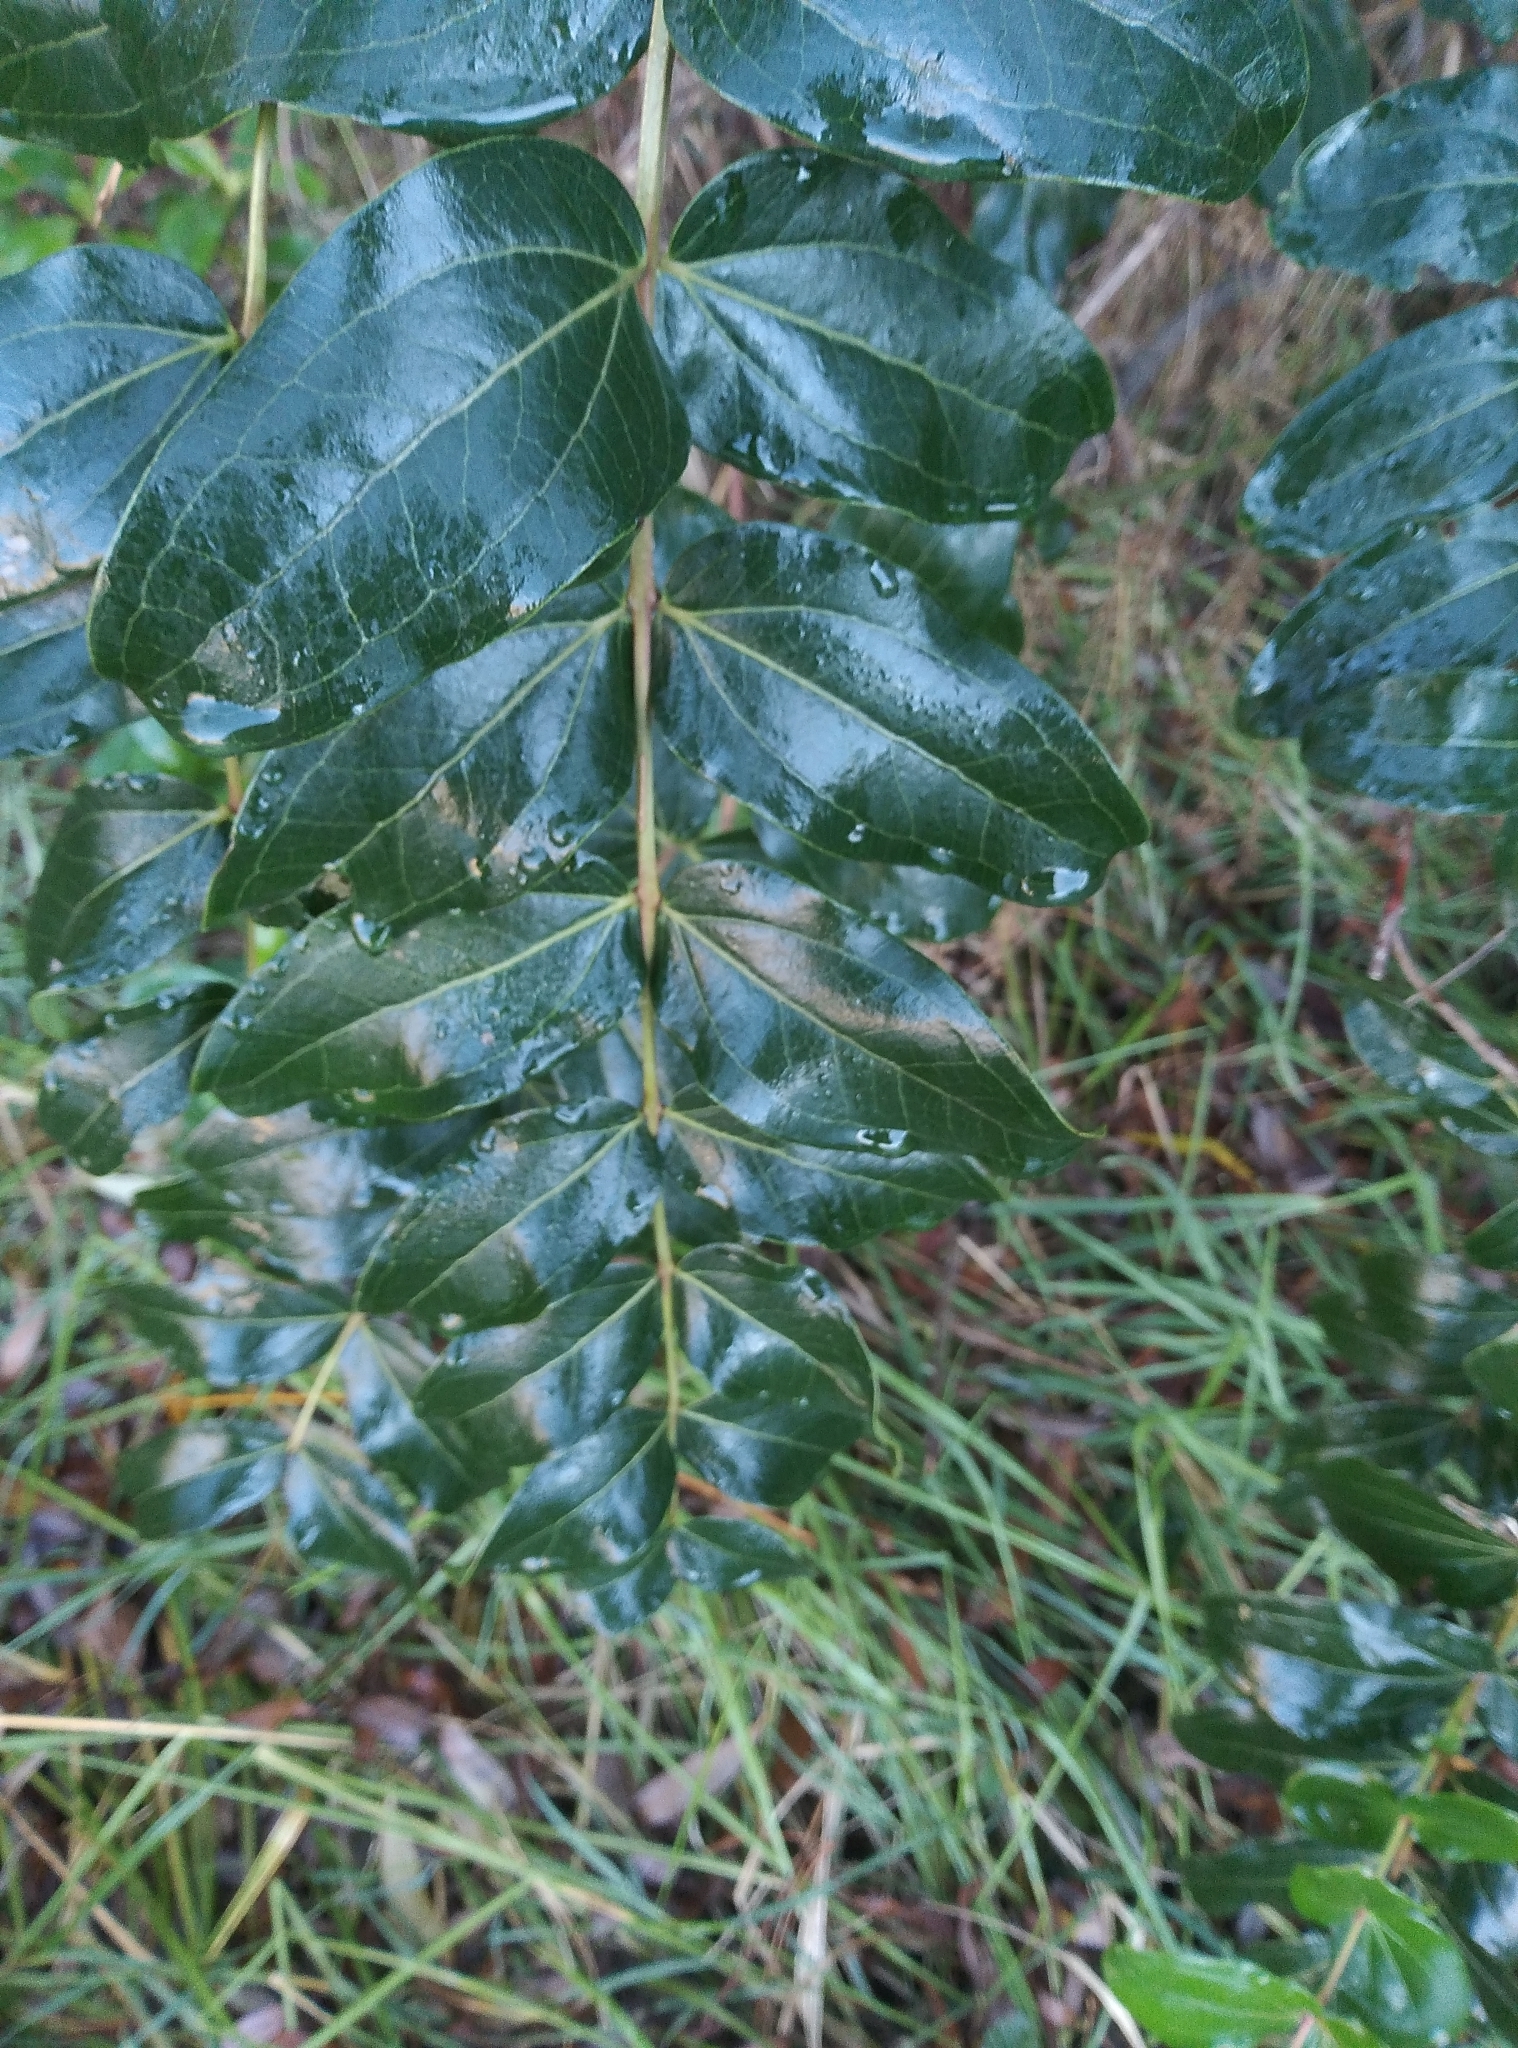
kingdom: Plantae
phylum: Tracheophyta
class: Magnoliopsida
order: Cucurbitales
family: Coriariaceae
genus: Coriaria
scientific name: Coriaria arborea
